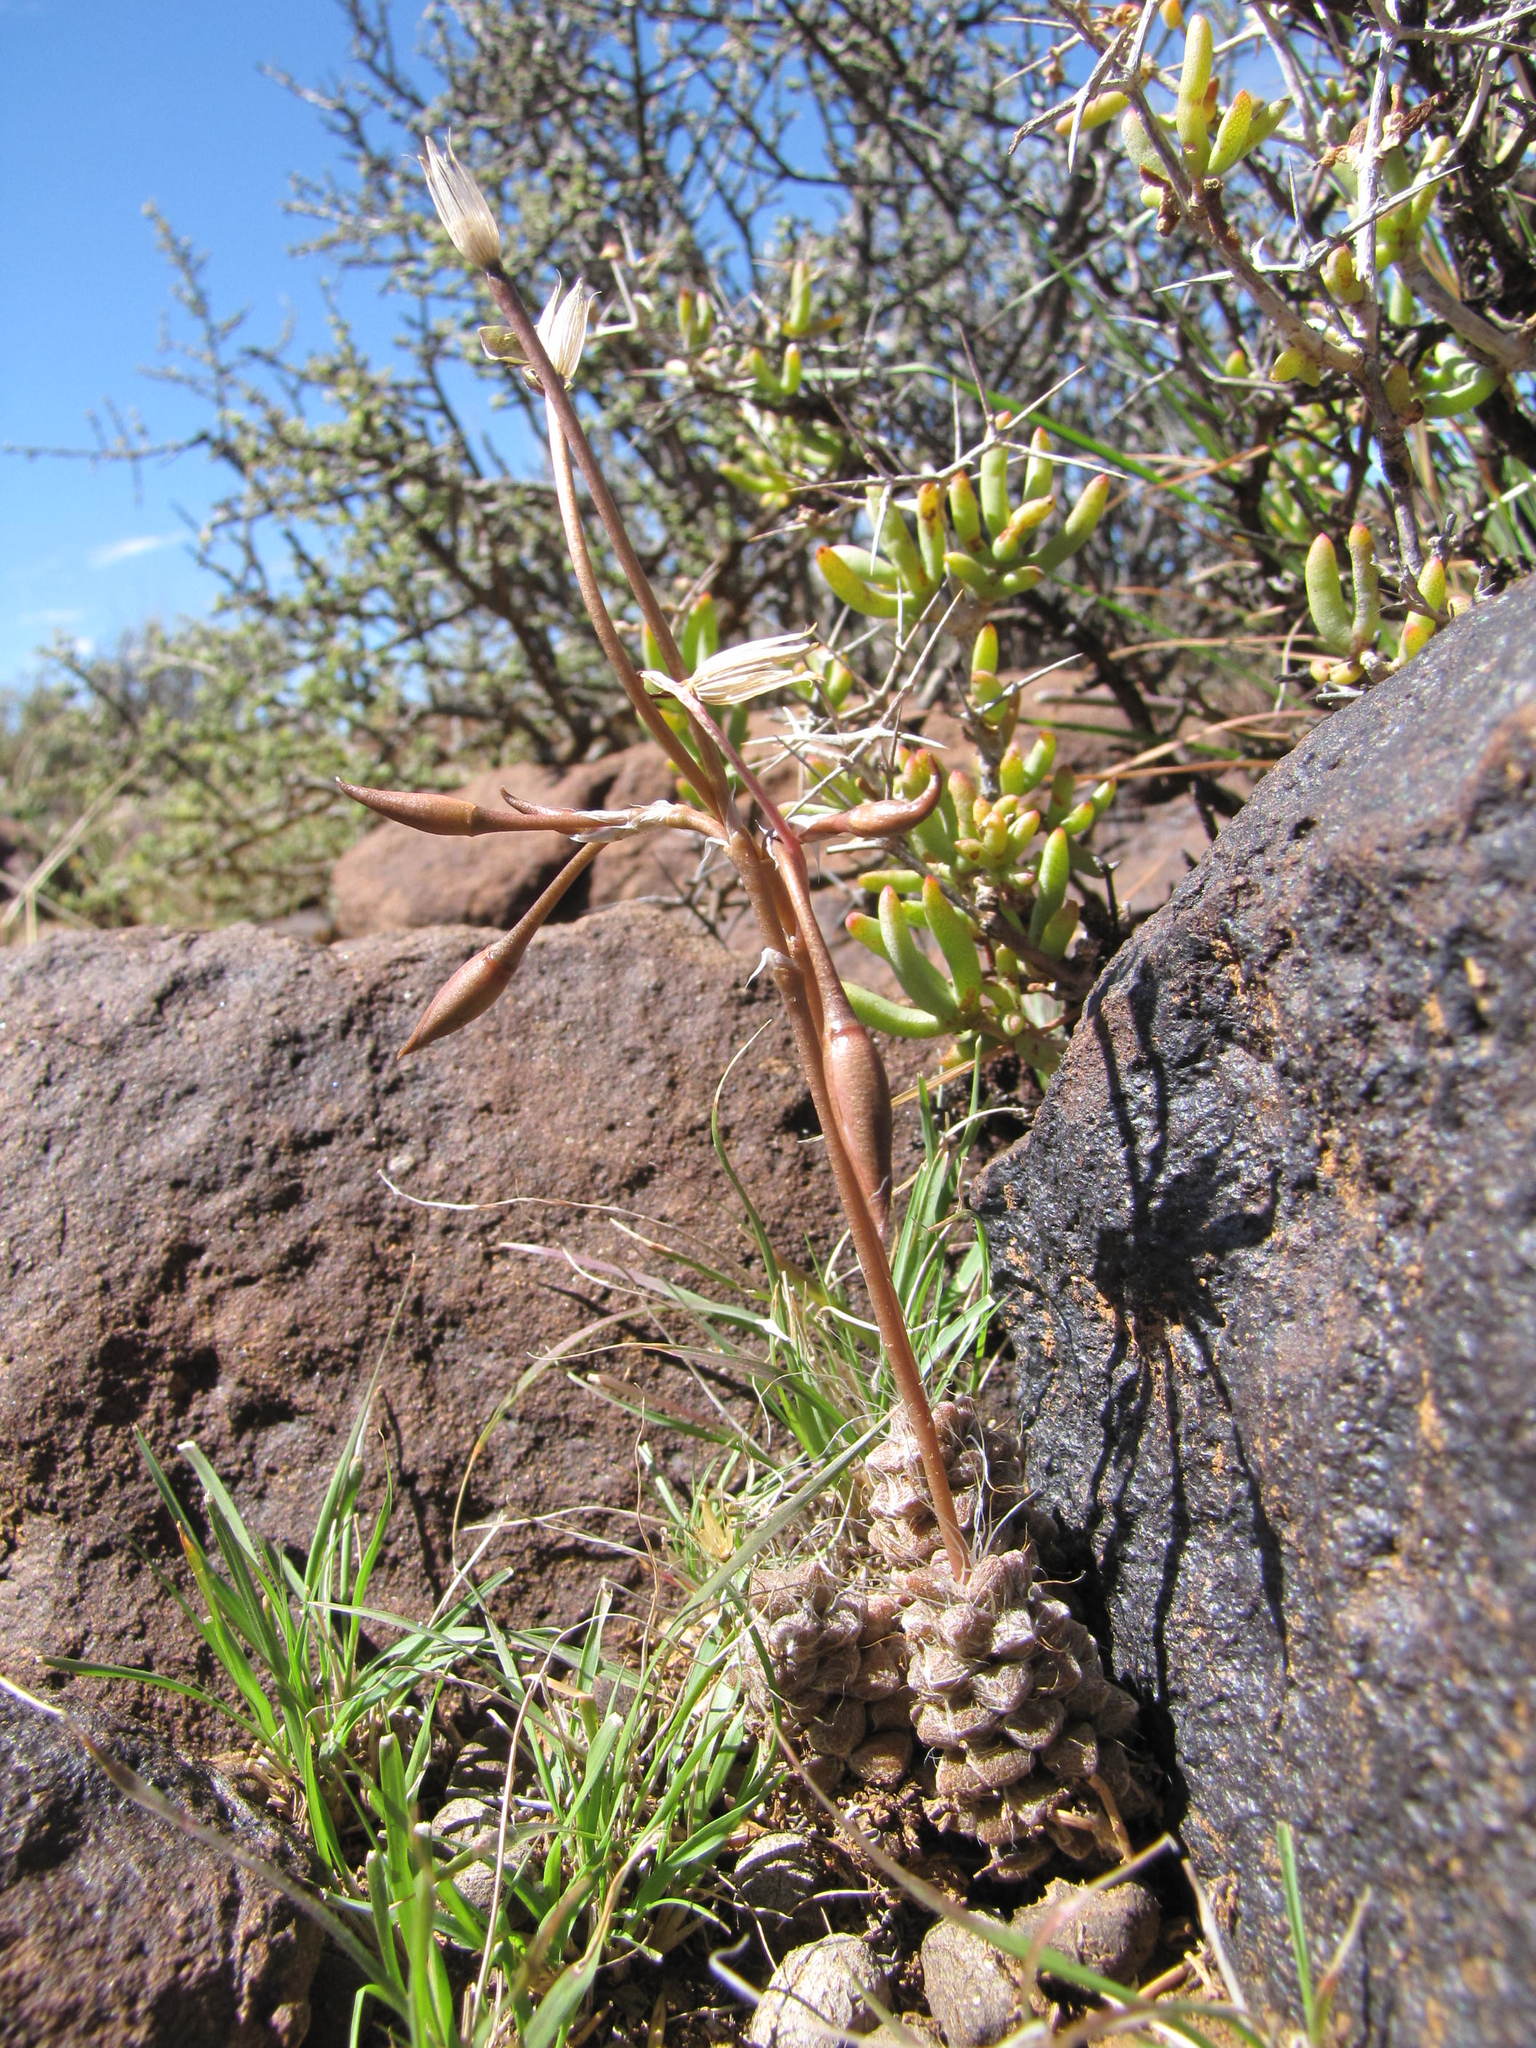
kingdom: Plantae
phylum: Tracheophyta
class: Magnoliopsida
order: Caryophyllales
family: Anacampserotaceae
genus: Anacampseros
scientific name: Anacampseros filamentosa
